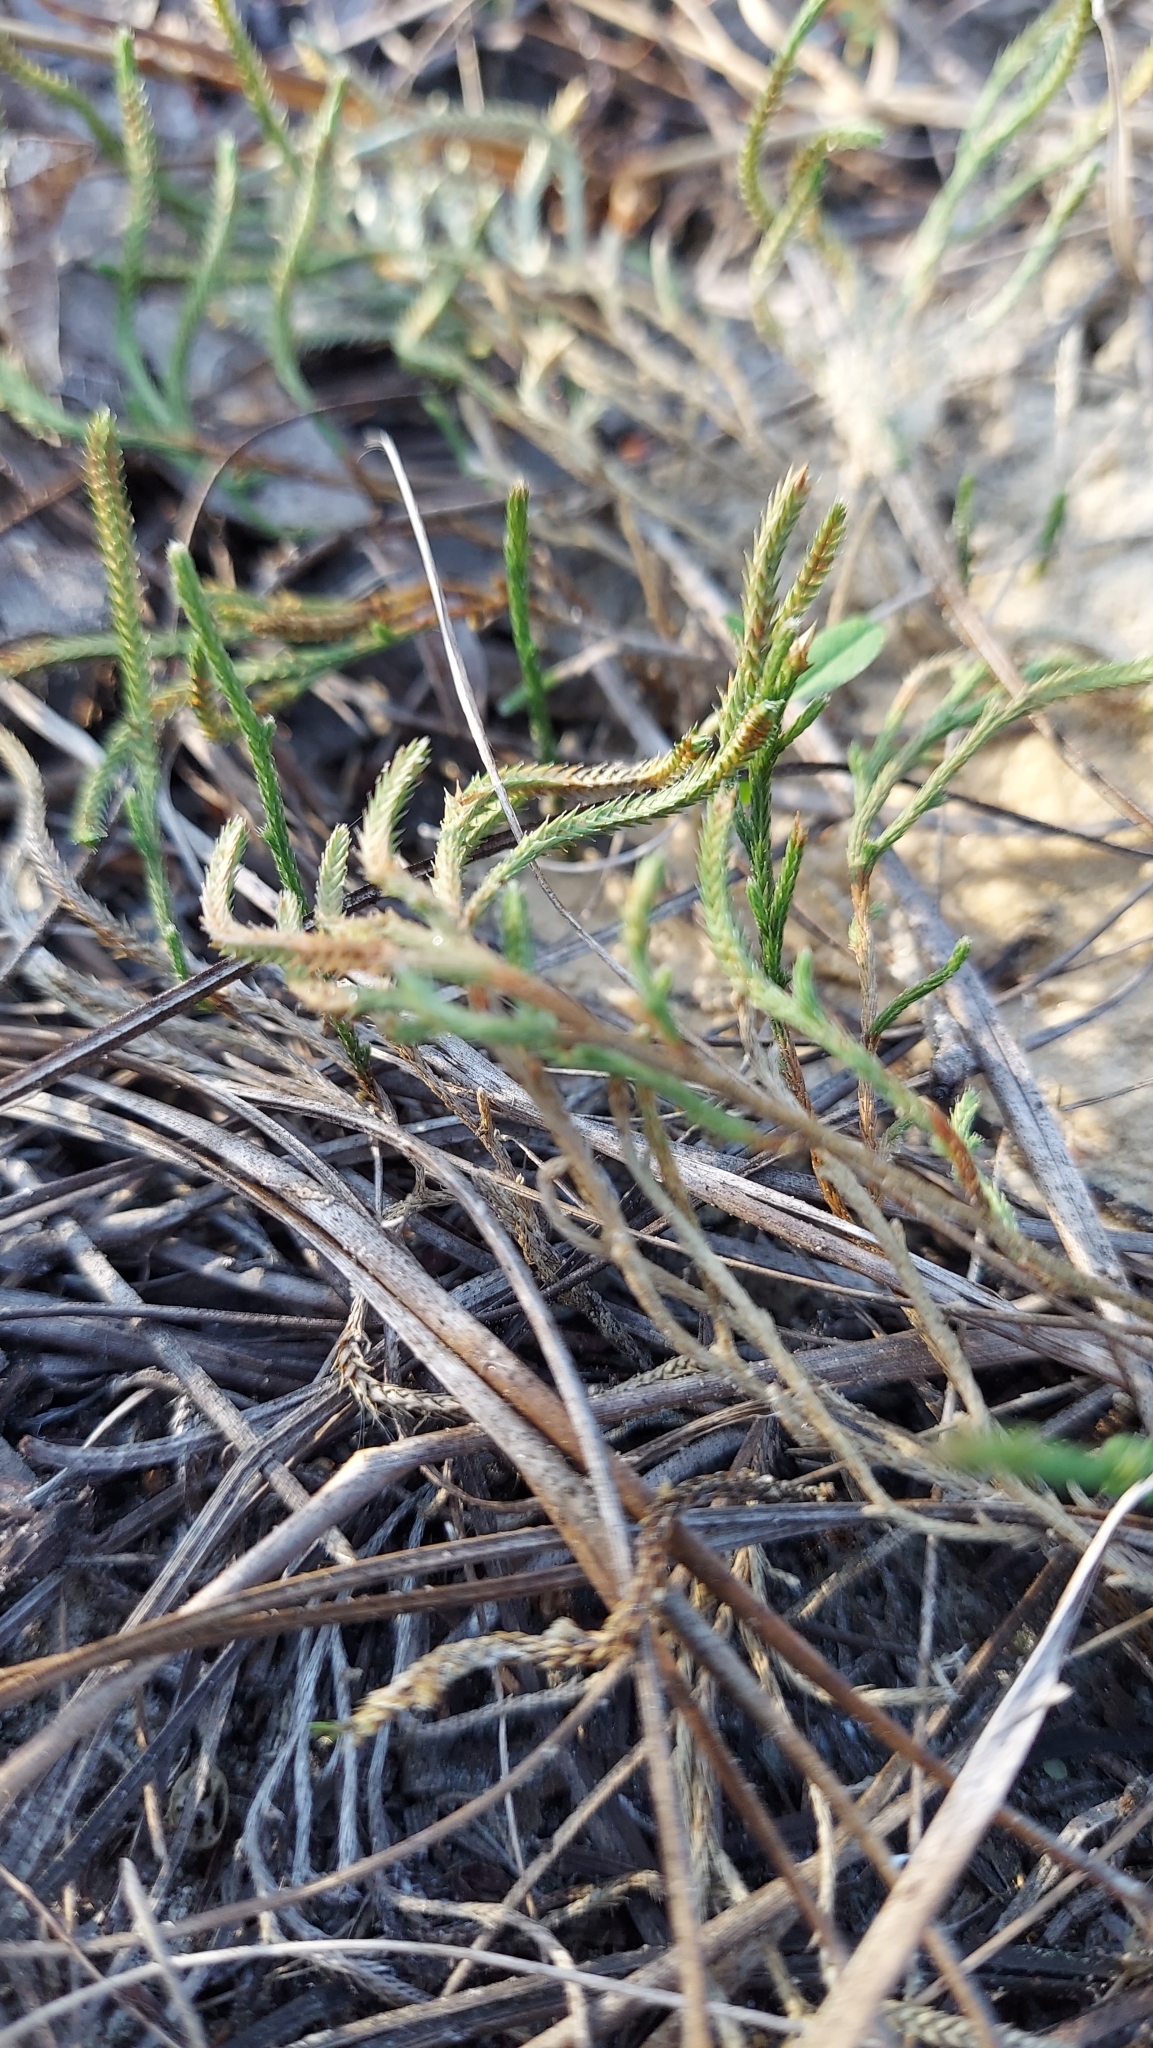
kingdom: Plantae
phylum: Tracheophyta
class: Lycopodiopsida
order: Selaginellales
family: Selaginellaceae
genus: Selaginella
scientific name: Selaginella arenicola
